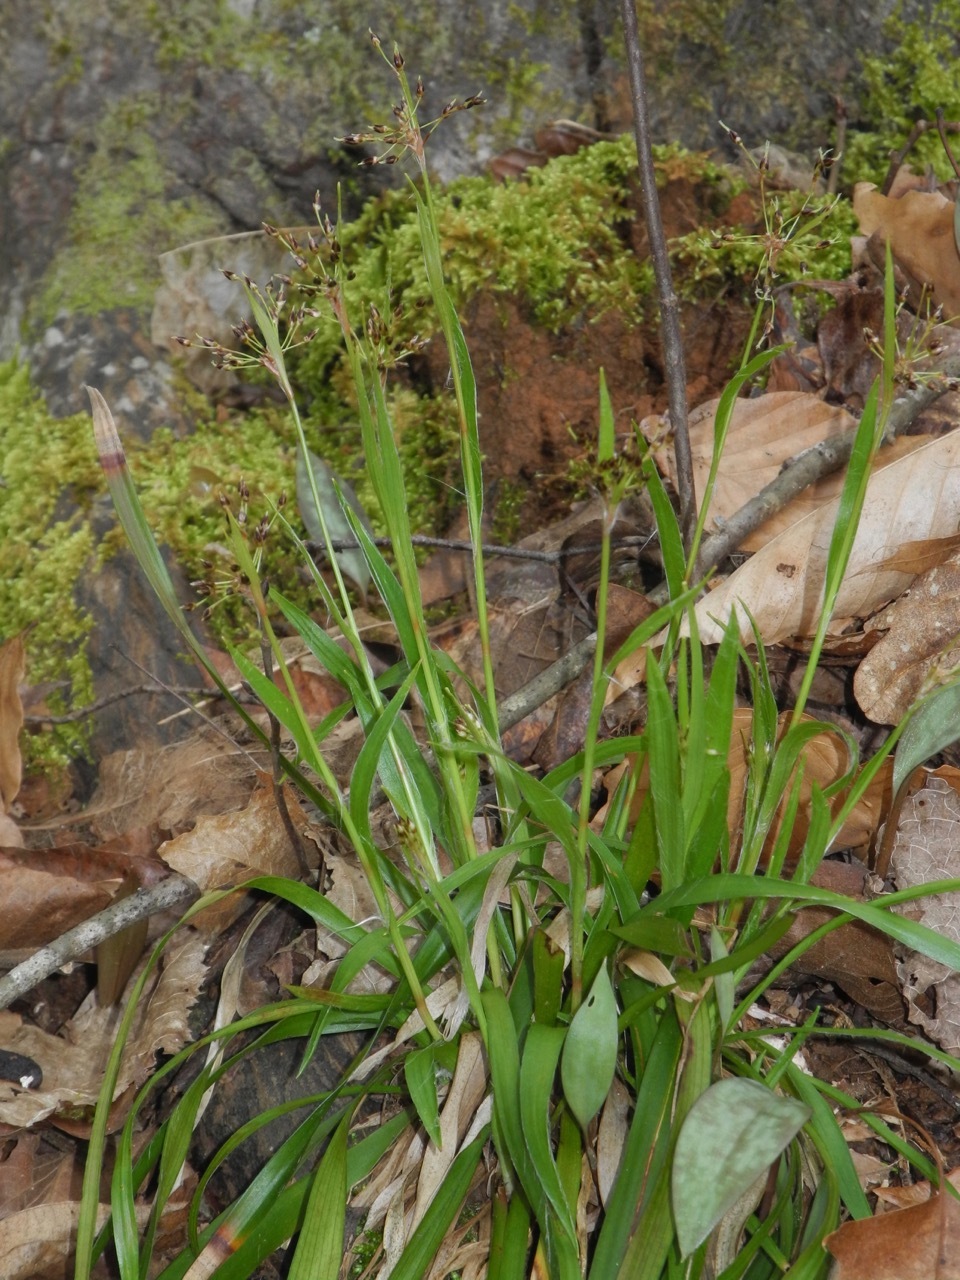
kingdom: Plantae
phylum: Tracheophyta
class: Liliopsida
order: Poales
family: Juncaceae
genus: Luzula
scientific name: Luzula acuminata
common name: Hairy woodrush
